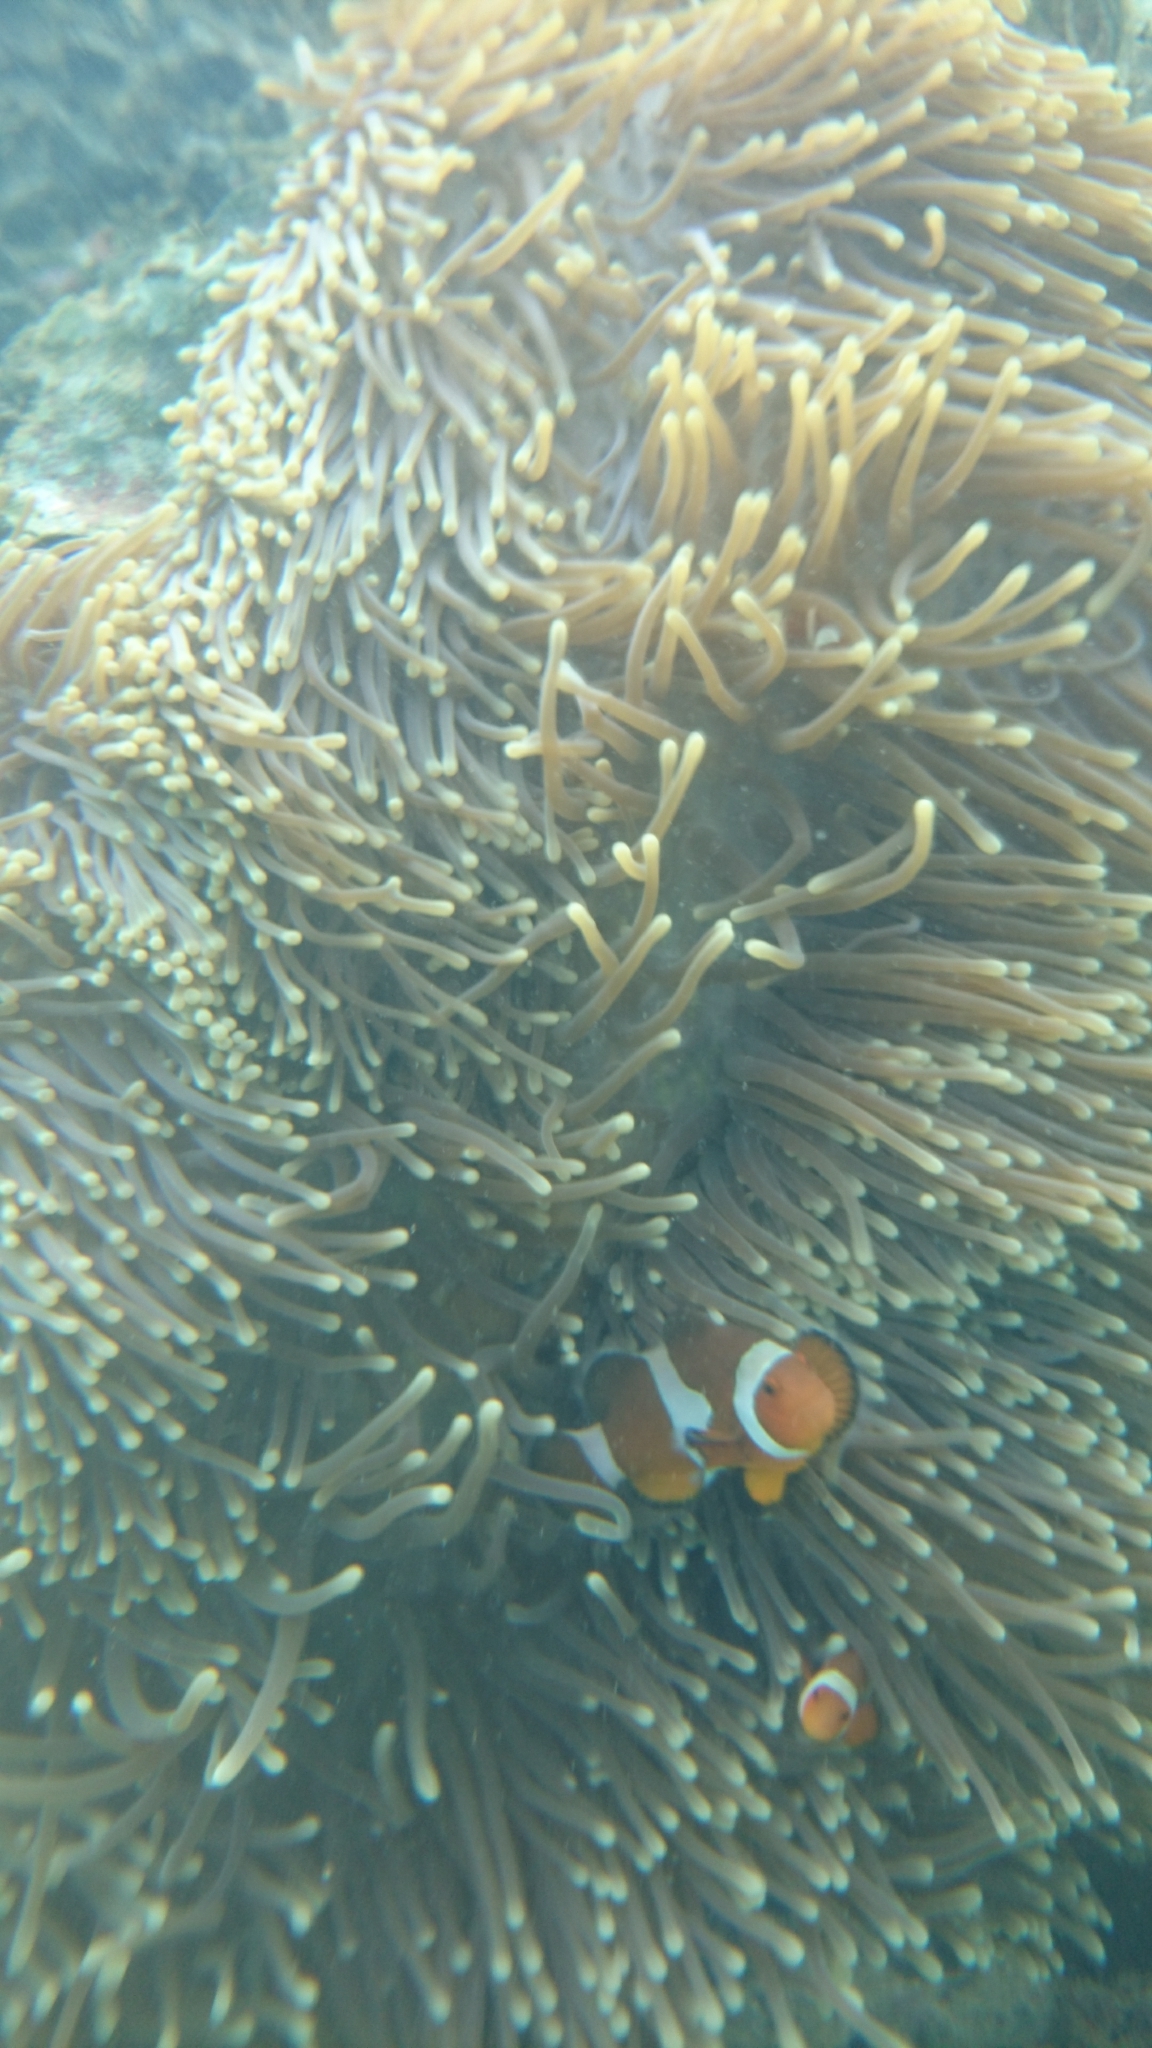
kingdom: Animalia
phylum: Chordata
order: Perciformes
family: Pomacentridae
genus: Amphiprion
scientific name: Amphiprion ocellaris
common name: Clown anemonefish
